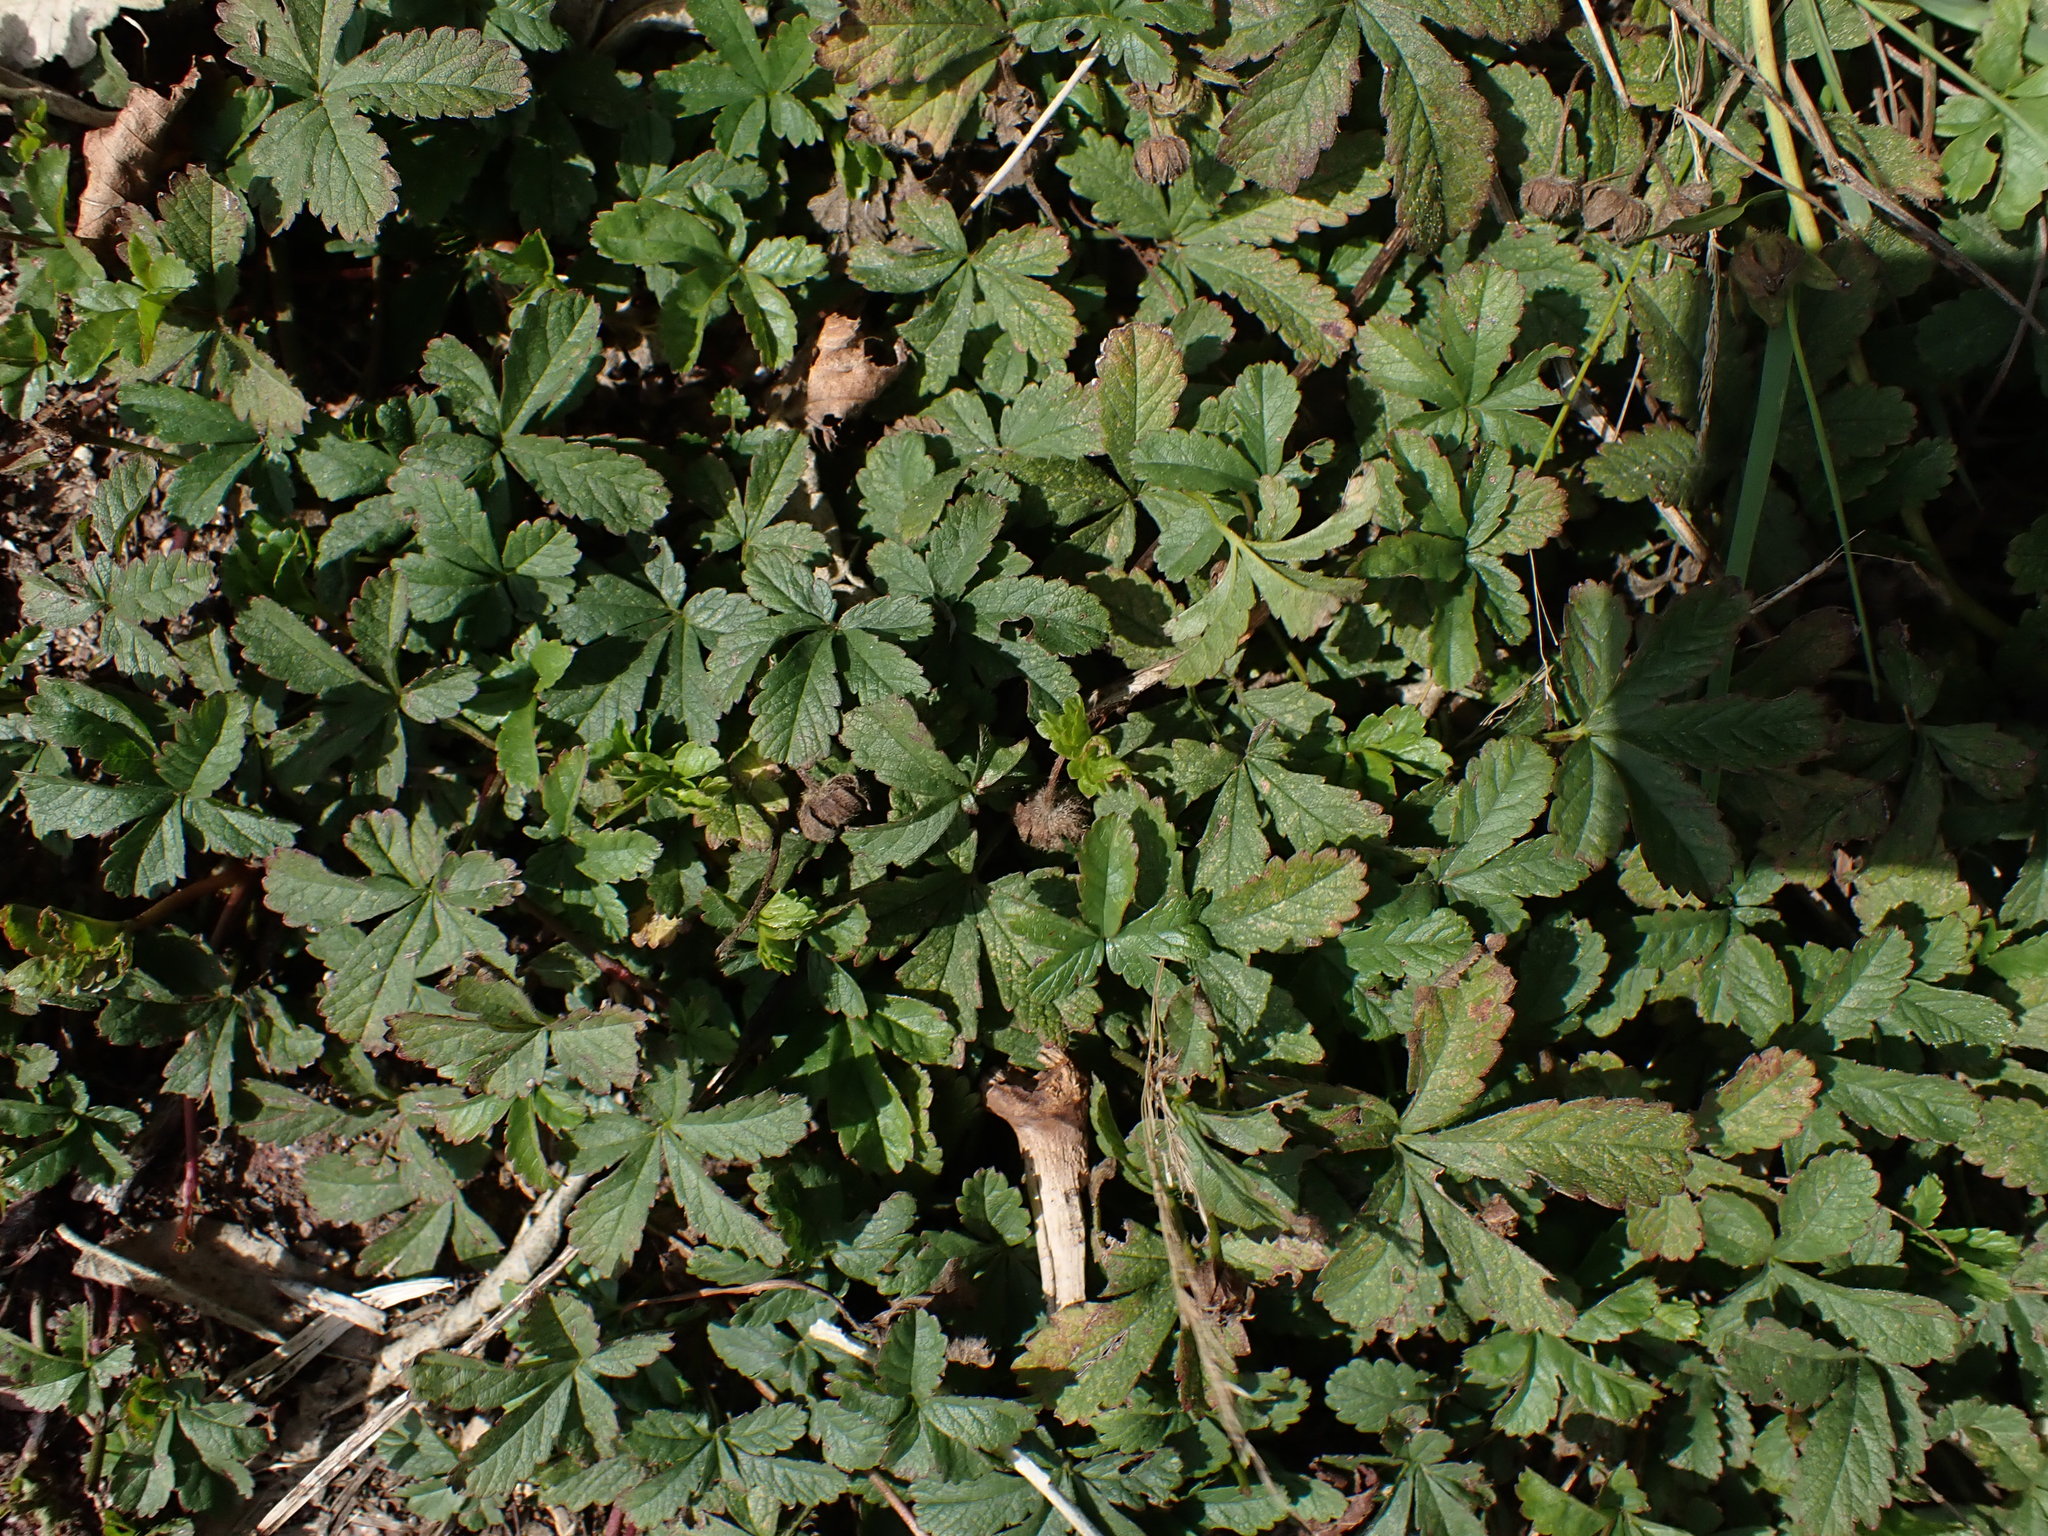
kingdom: Plantae
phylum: Tracheophyta
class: Magnoliopsida
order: Rosales
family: Rosaceae
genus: Potentilla
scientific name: Potentilla reptans
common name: Creeping cinquefoil
